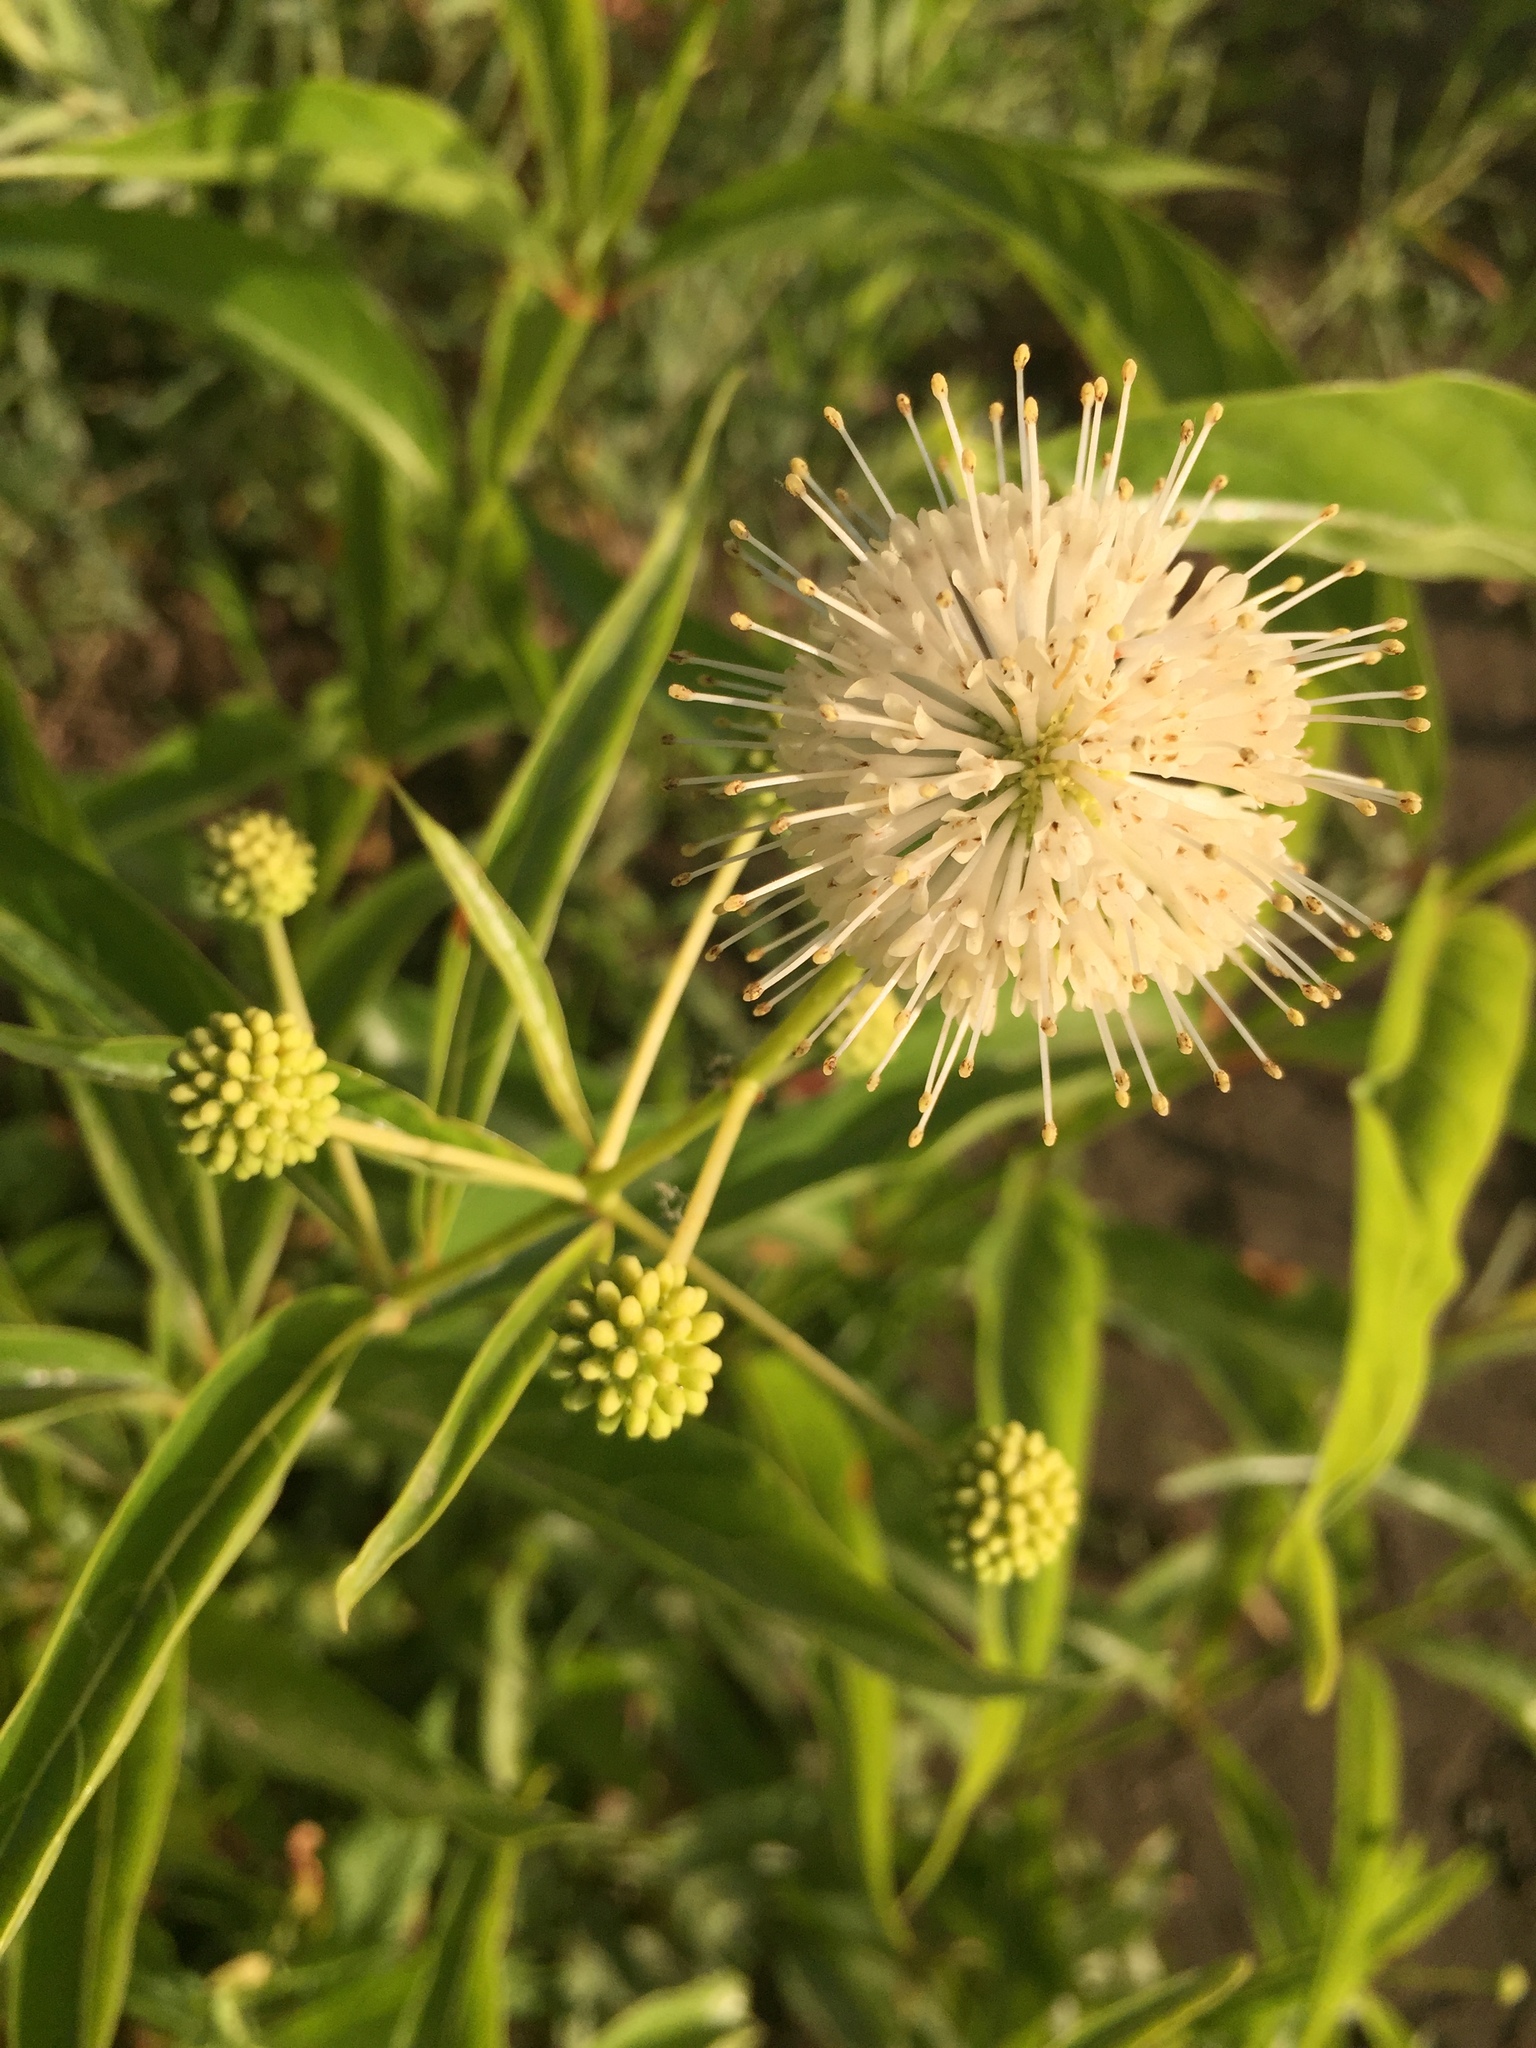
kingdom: Plantae
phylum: Tracheophyta
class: Magnoliopsida
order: Gentianales
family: Rubiaceae
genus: Cephalanthus
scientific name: Cephalanthus occidentalis
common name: Button-willow
